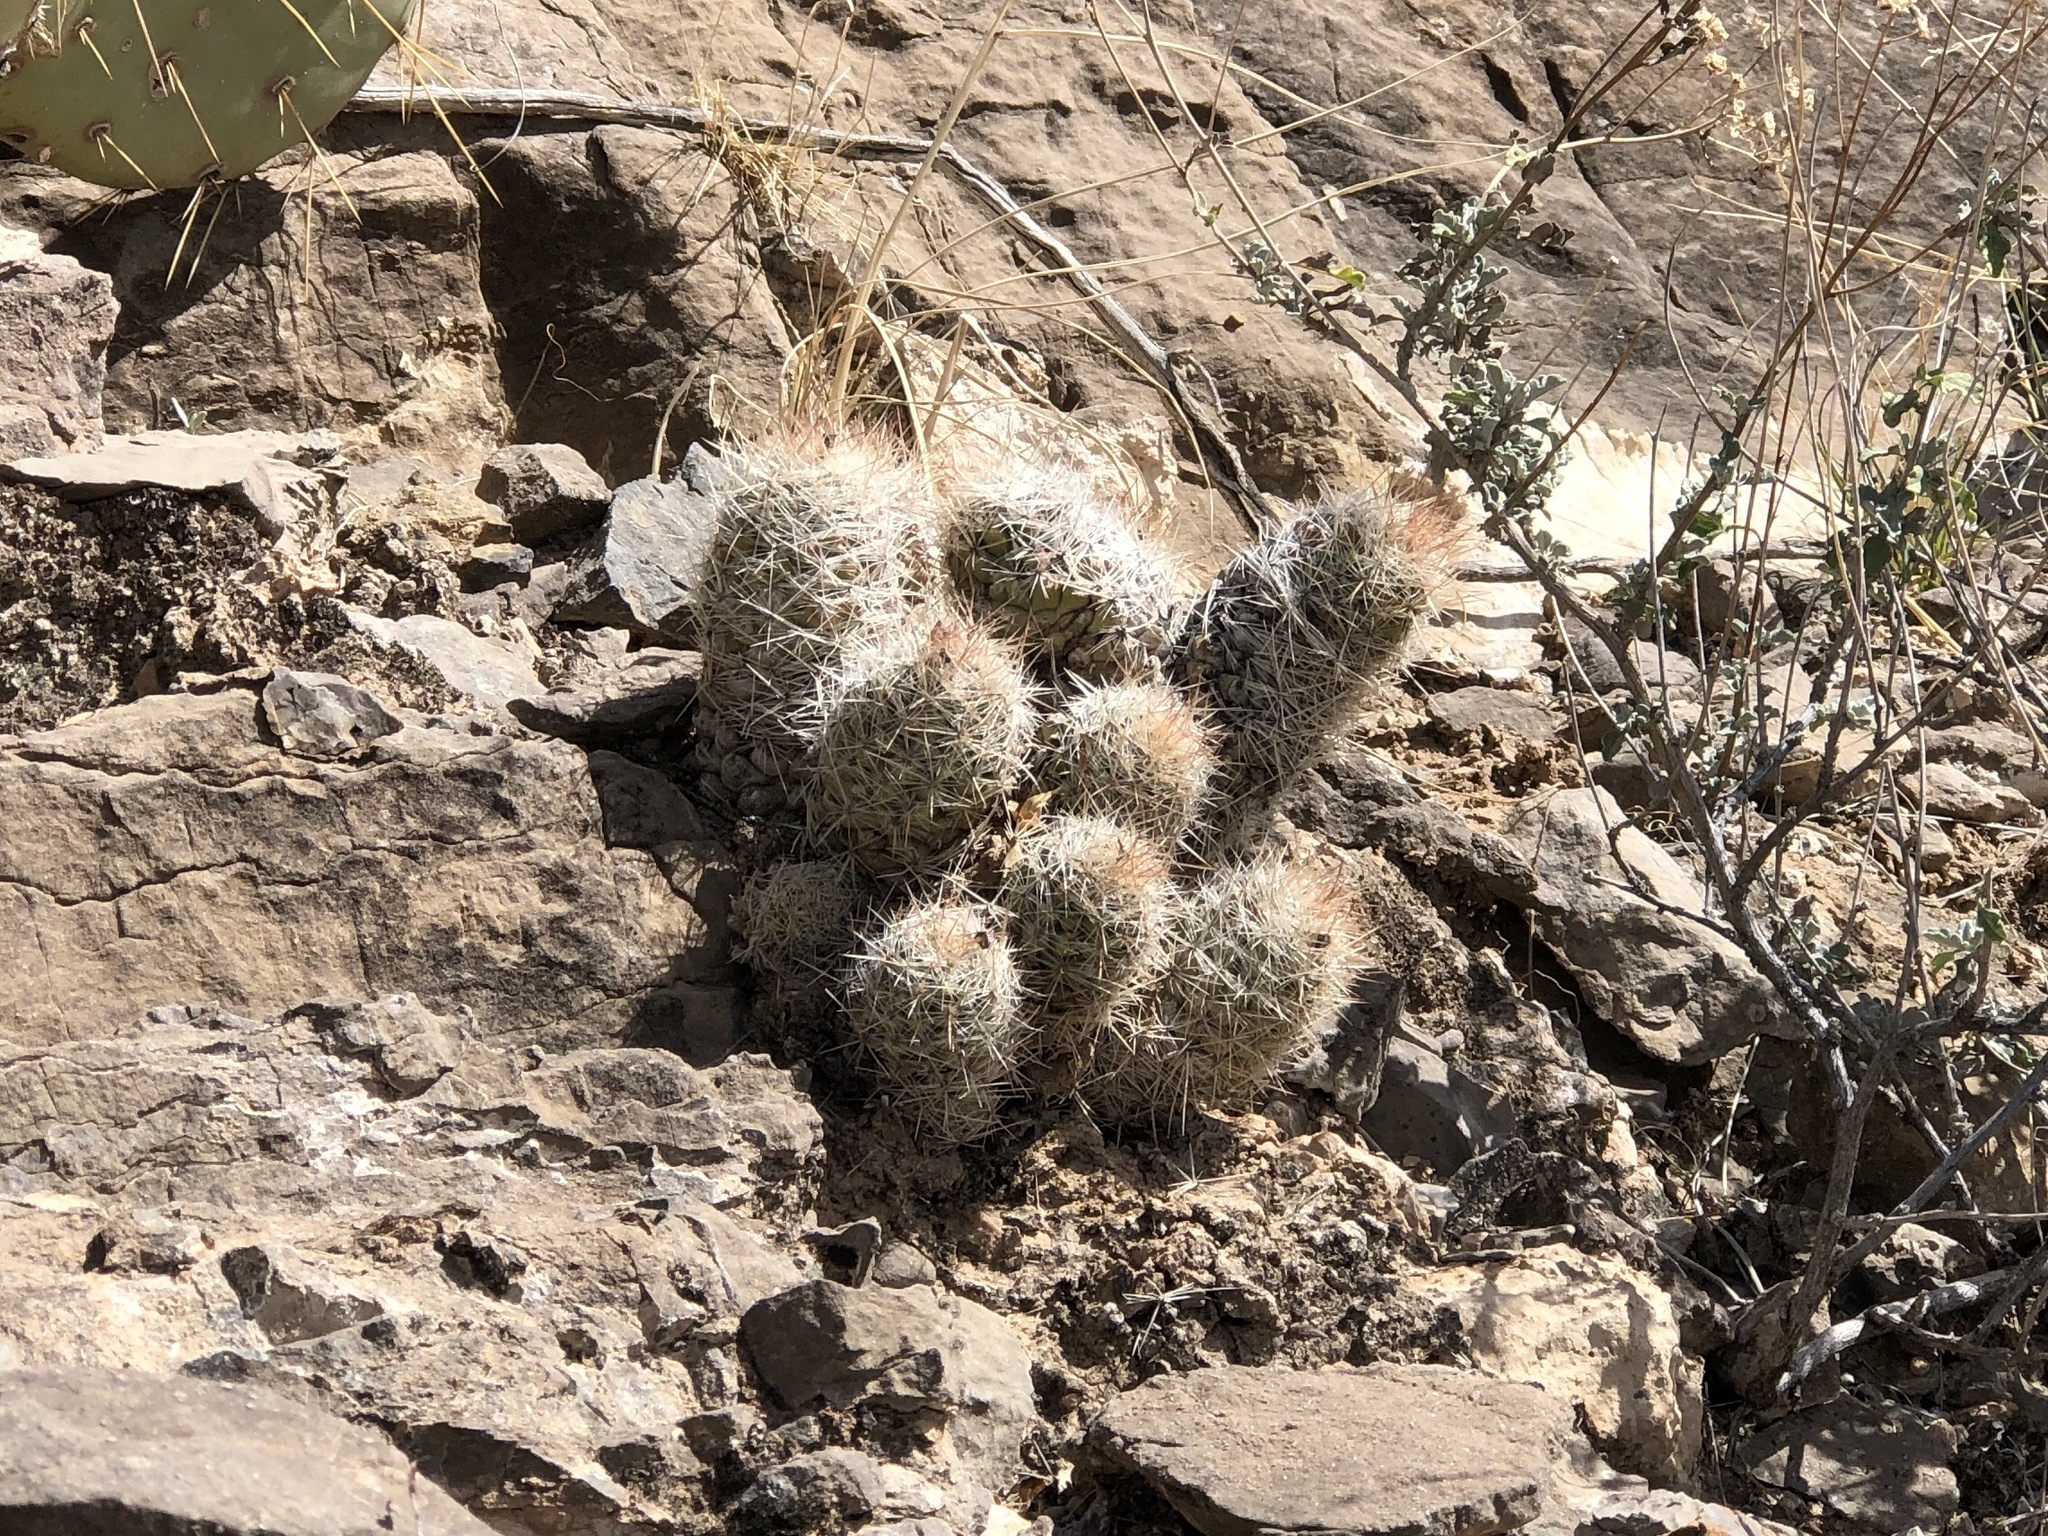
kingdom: Plantae
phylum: Tracheophyta
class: Magnoliopsida
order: Caryophyllales
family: Cactaceae
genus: Pelecyphora
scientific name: Pelecyphora tuberculosa
